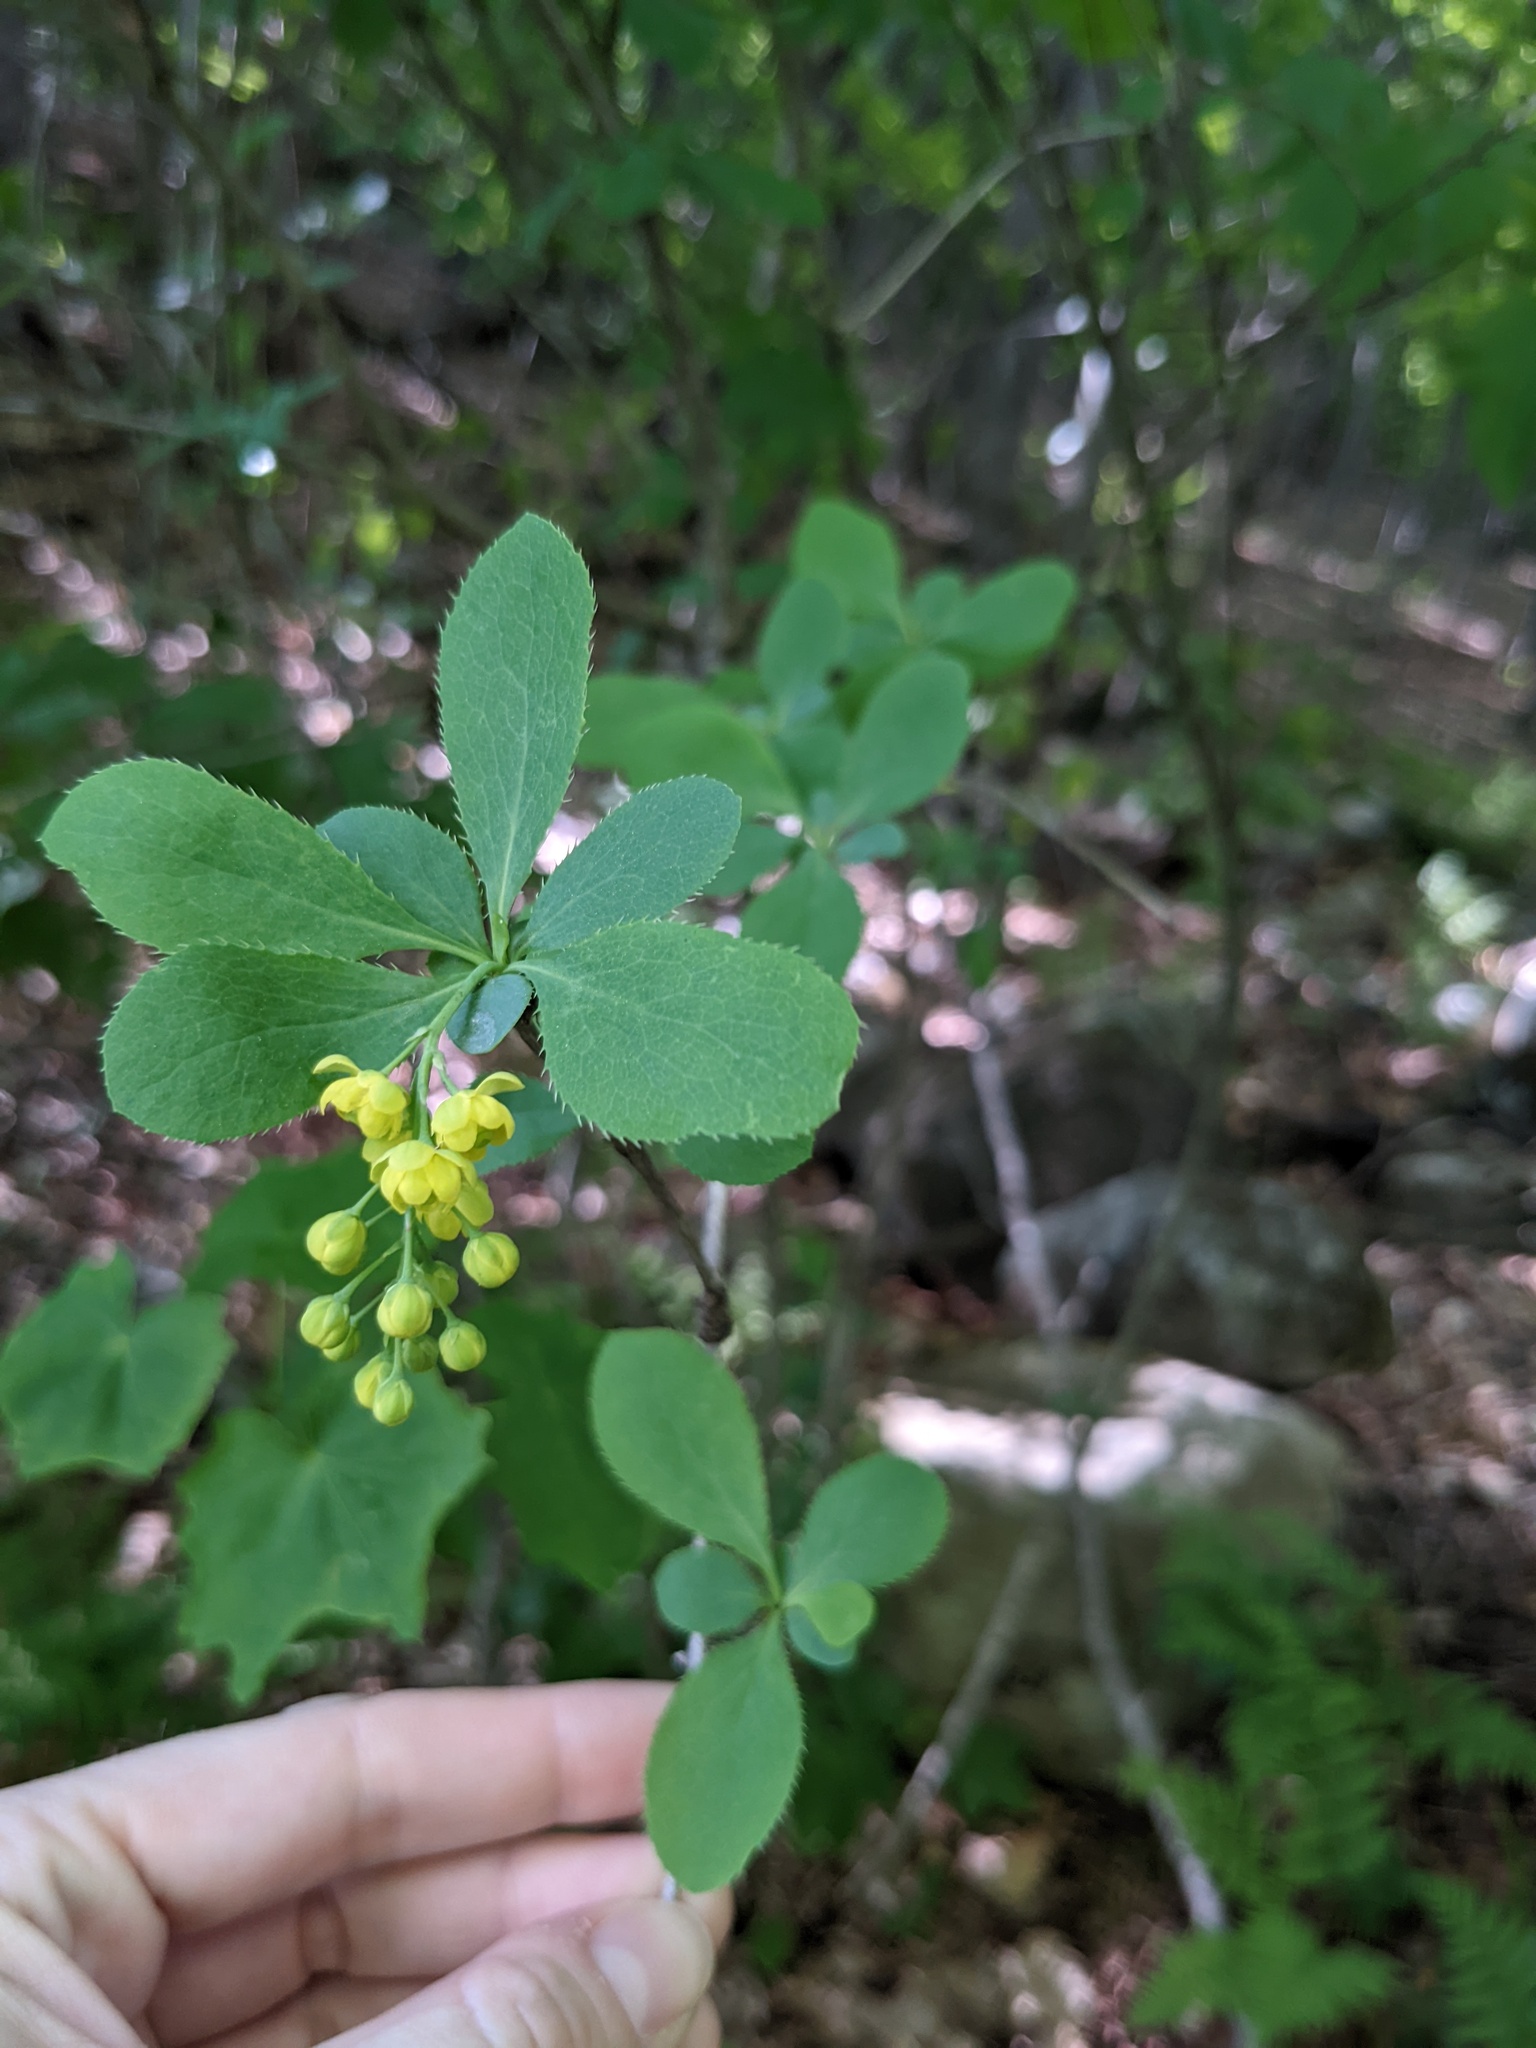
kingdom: Plantae
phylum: Tracheophyta
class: Magnoliopsida
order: Ranunculales
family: Berberidaceae
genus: Berberis
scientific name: Berberis vulgaris
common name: Barberry
